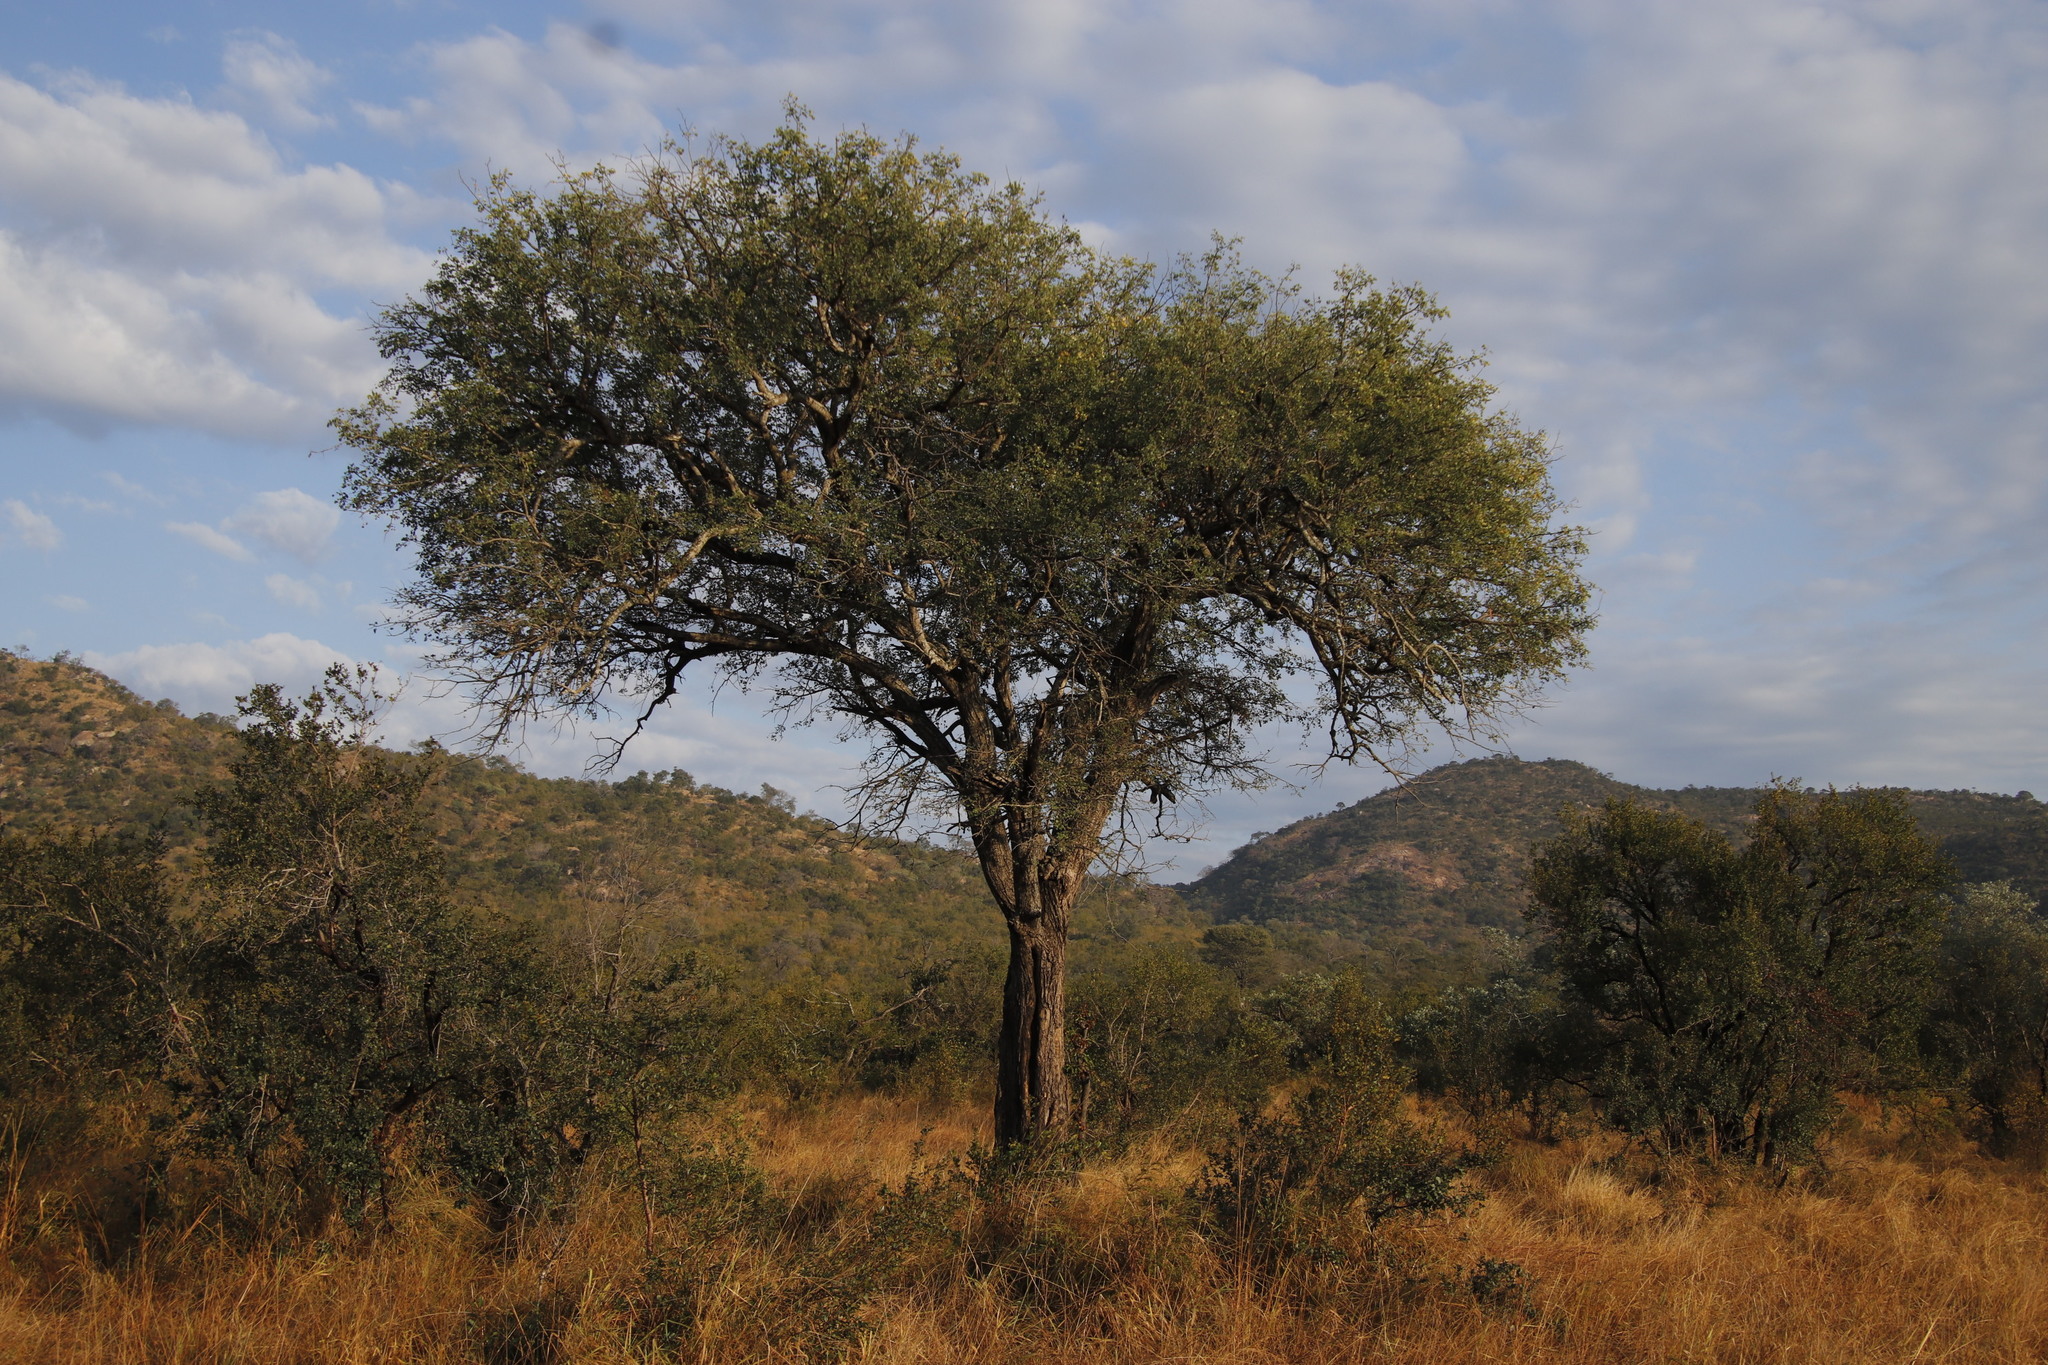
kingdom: Plantae
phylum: Tracheophyta
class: Magnoliopsida
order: Fabales
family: Fabaceae
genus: Senegalia
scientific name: Senegalia nigrescens
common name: Knobthorn
